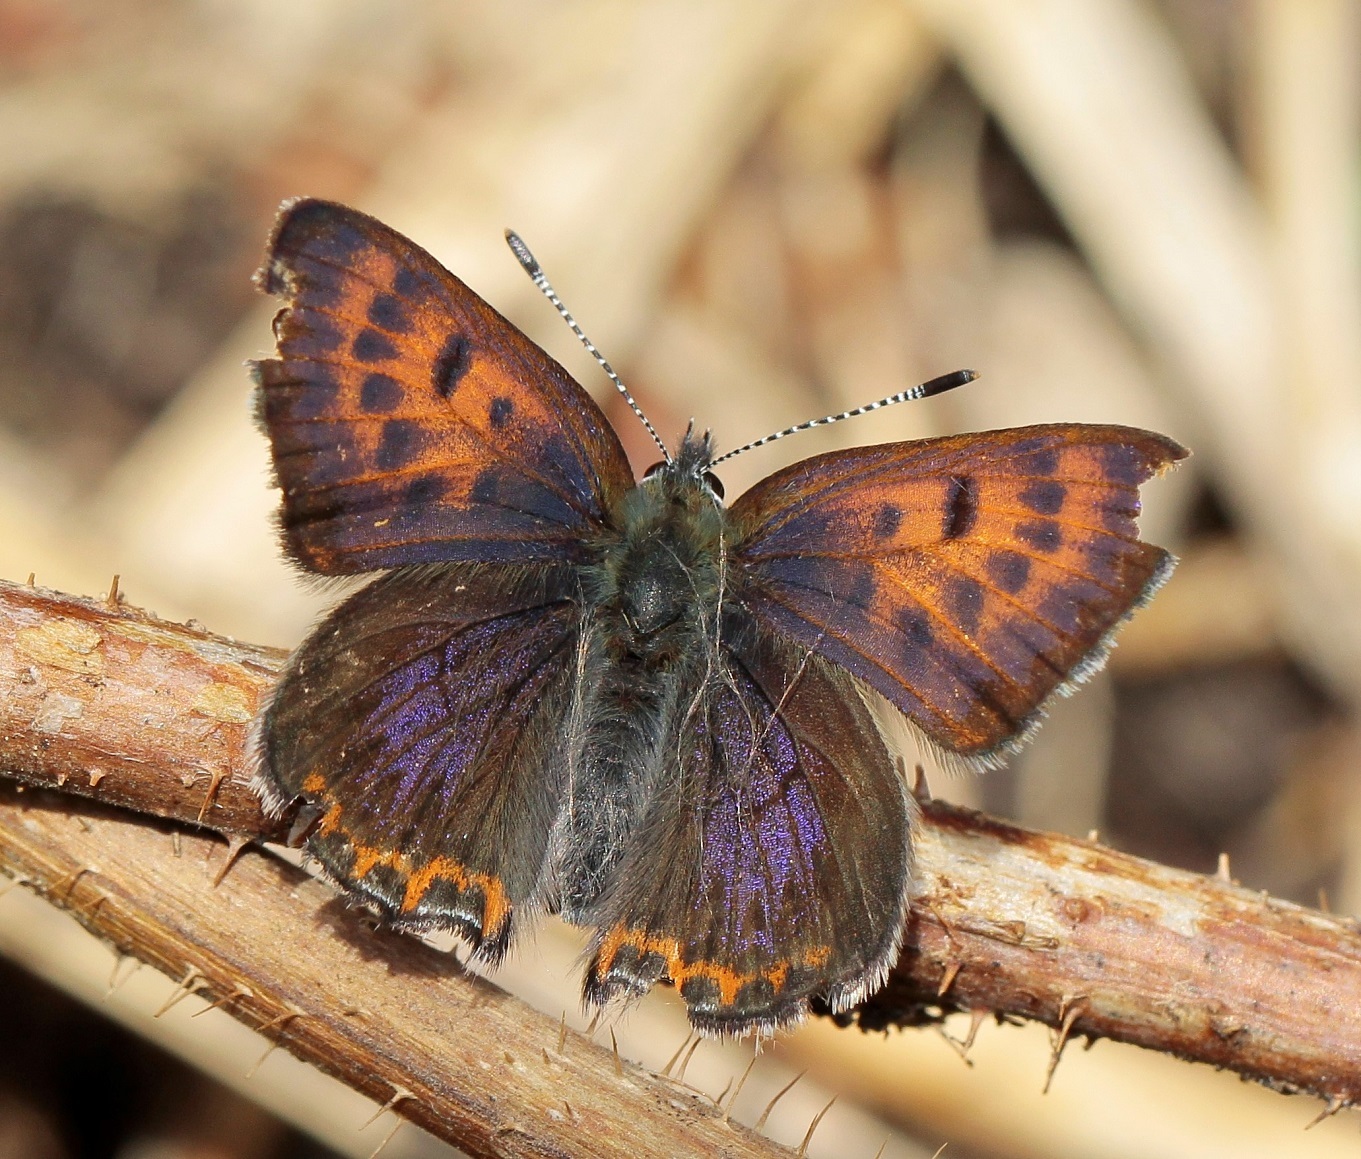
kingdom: Animalia
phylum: Arthropoda
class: Insecta
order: Lepidoptera
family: Lycaenidae
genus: Helleia
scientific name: Helleia helle
